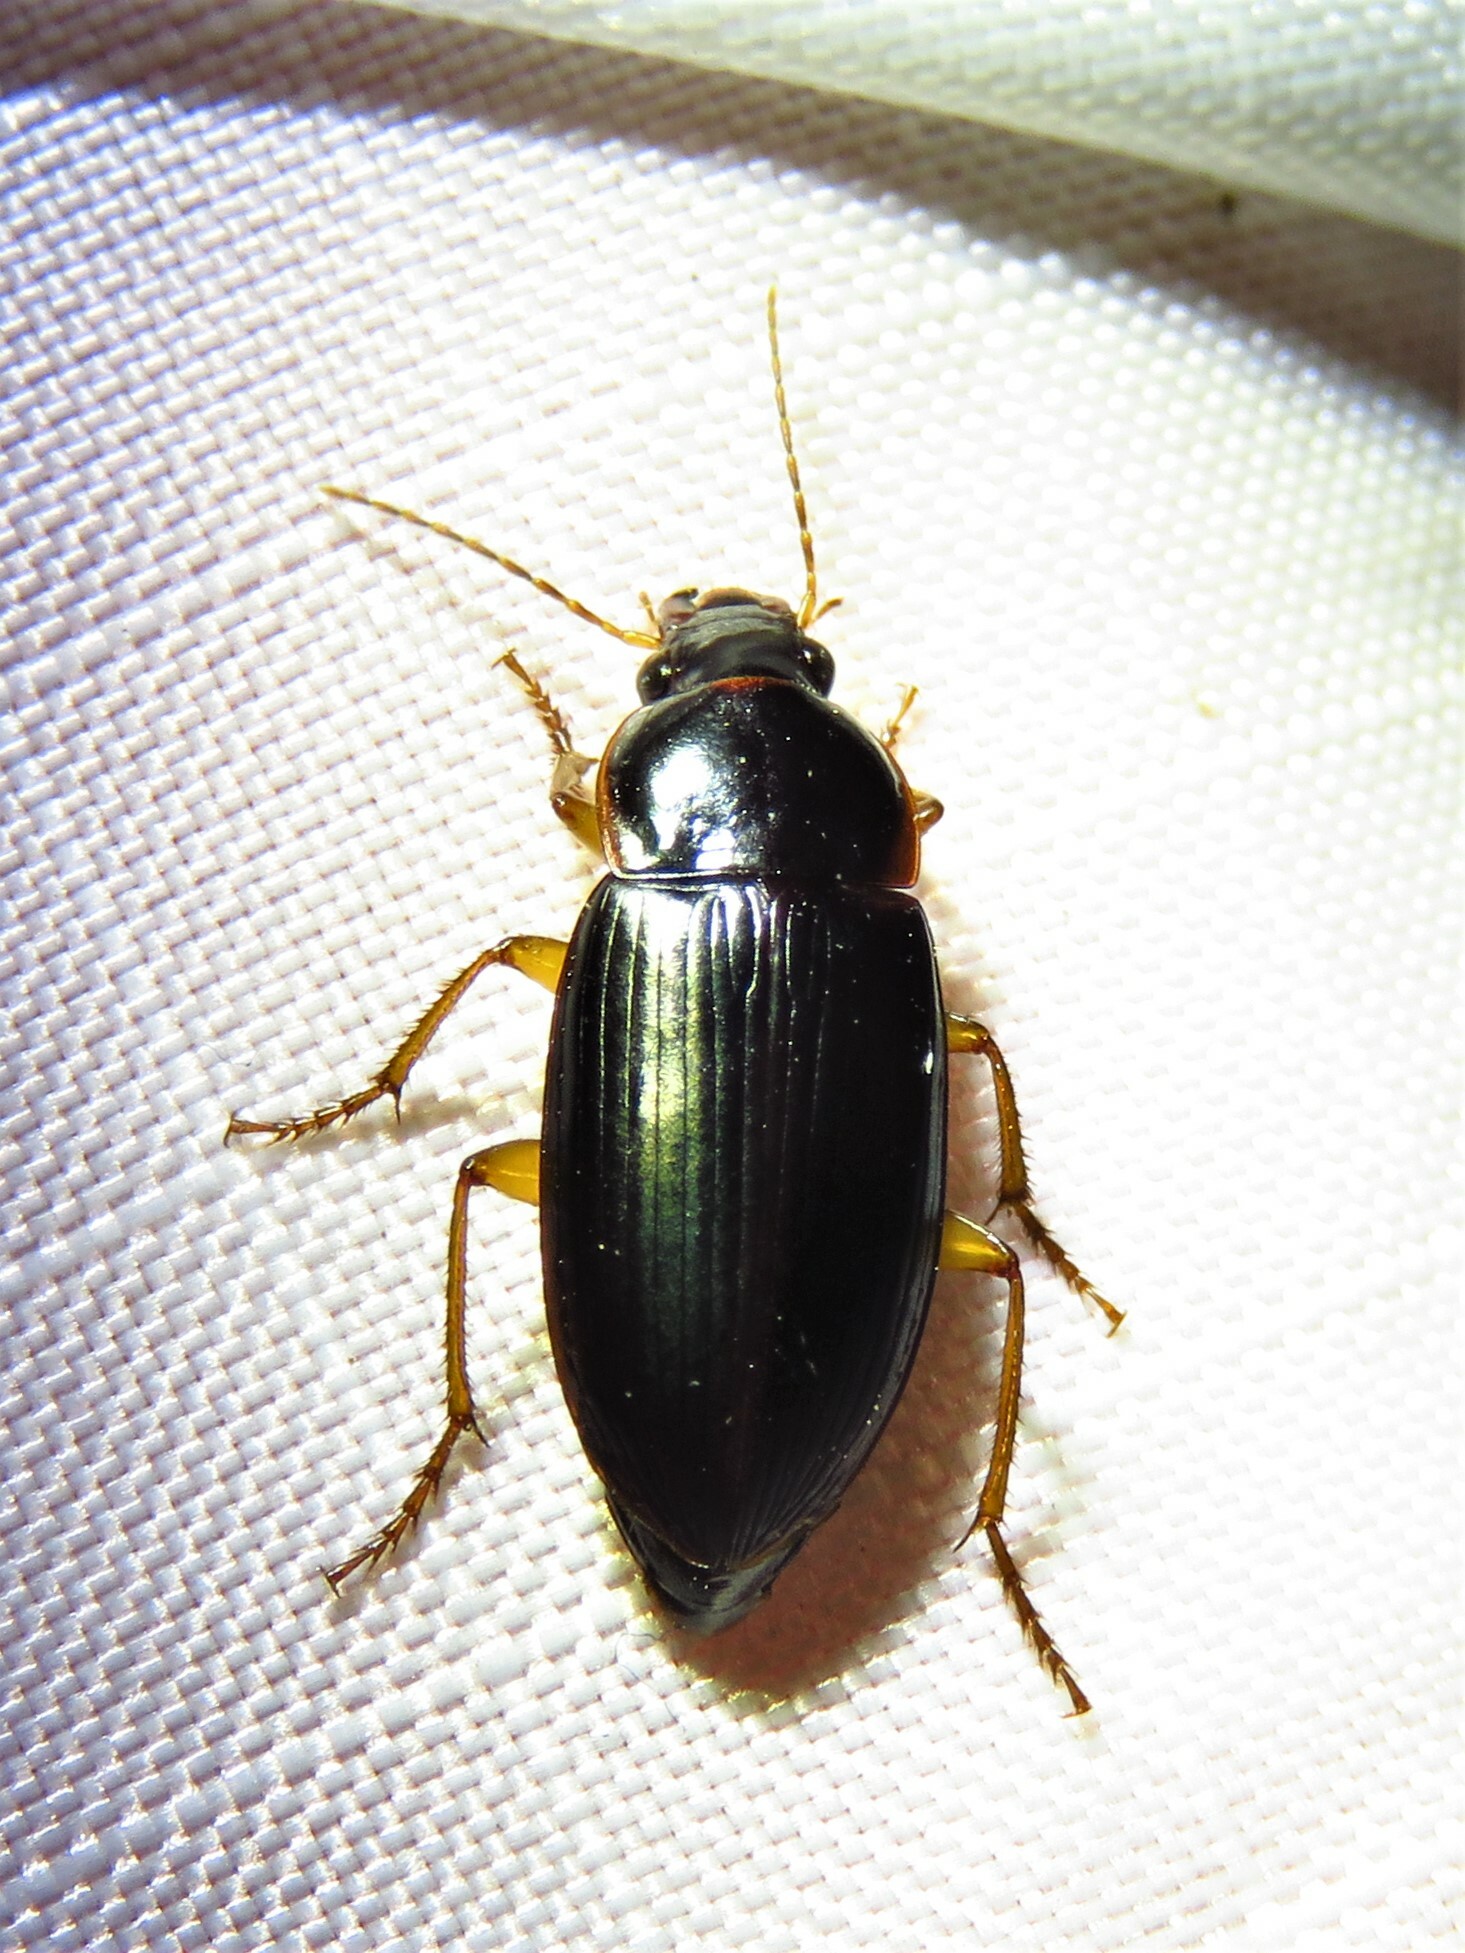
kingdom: Animalia
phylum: Arthropoda
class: Insecta
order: Coleoptera
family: Carabidae
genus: Notiobia
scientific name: Notiobia terminata
